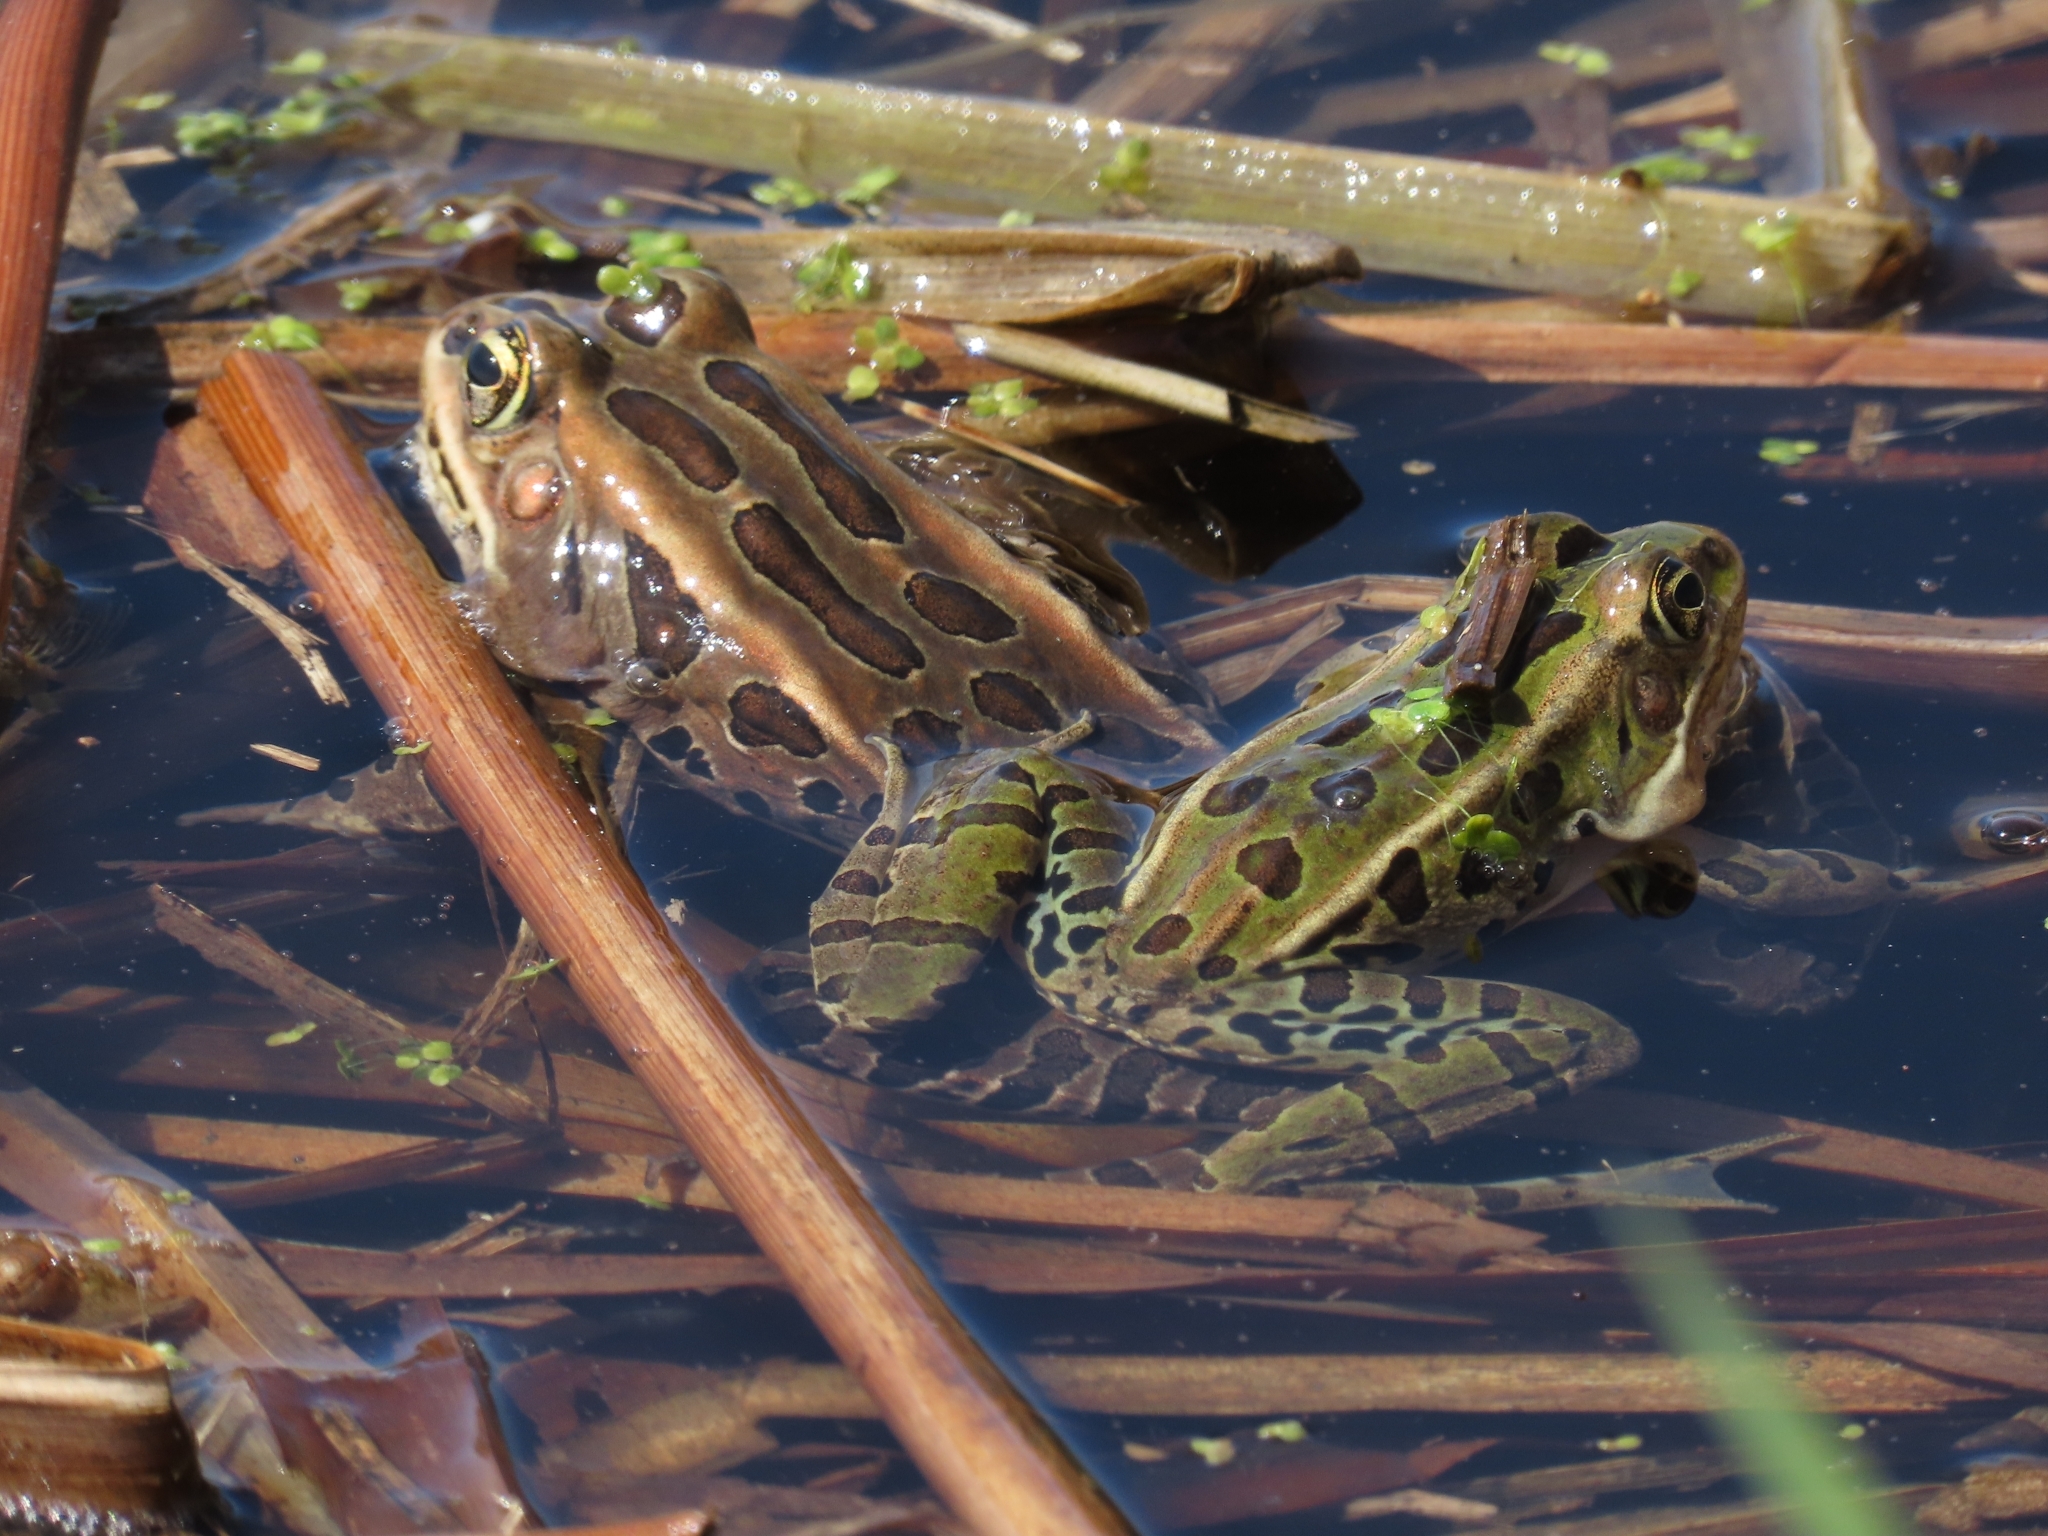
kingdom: Animalia
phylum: Chordata
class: Amphibia
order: Anura
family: Ranidae
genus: Lithobates
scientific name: Lithobates pipiens
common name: Northern leopard frog
